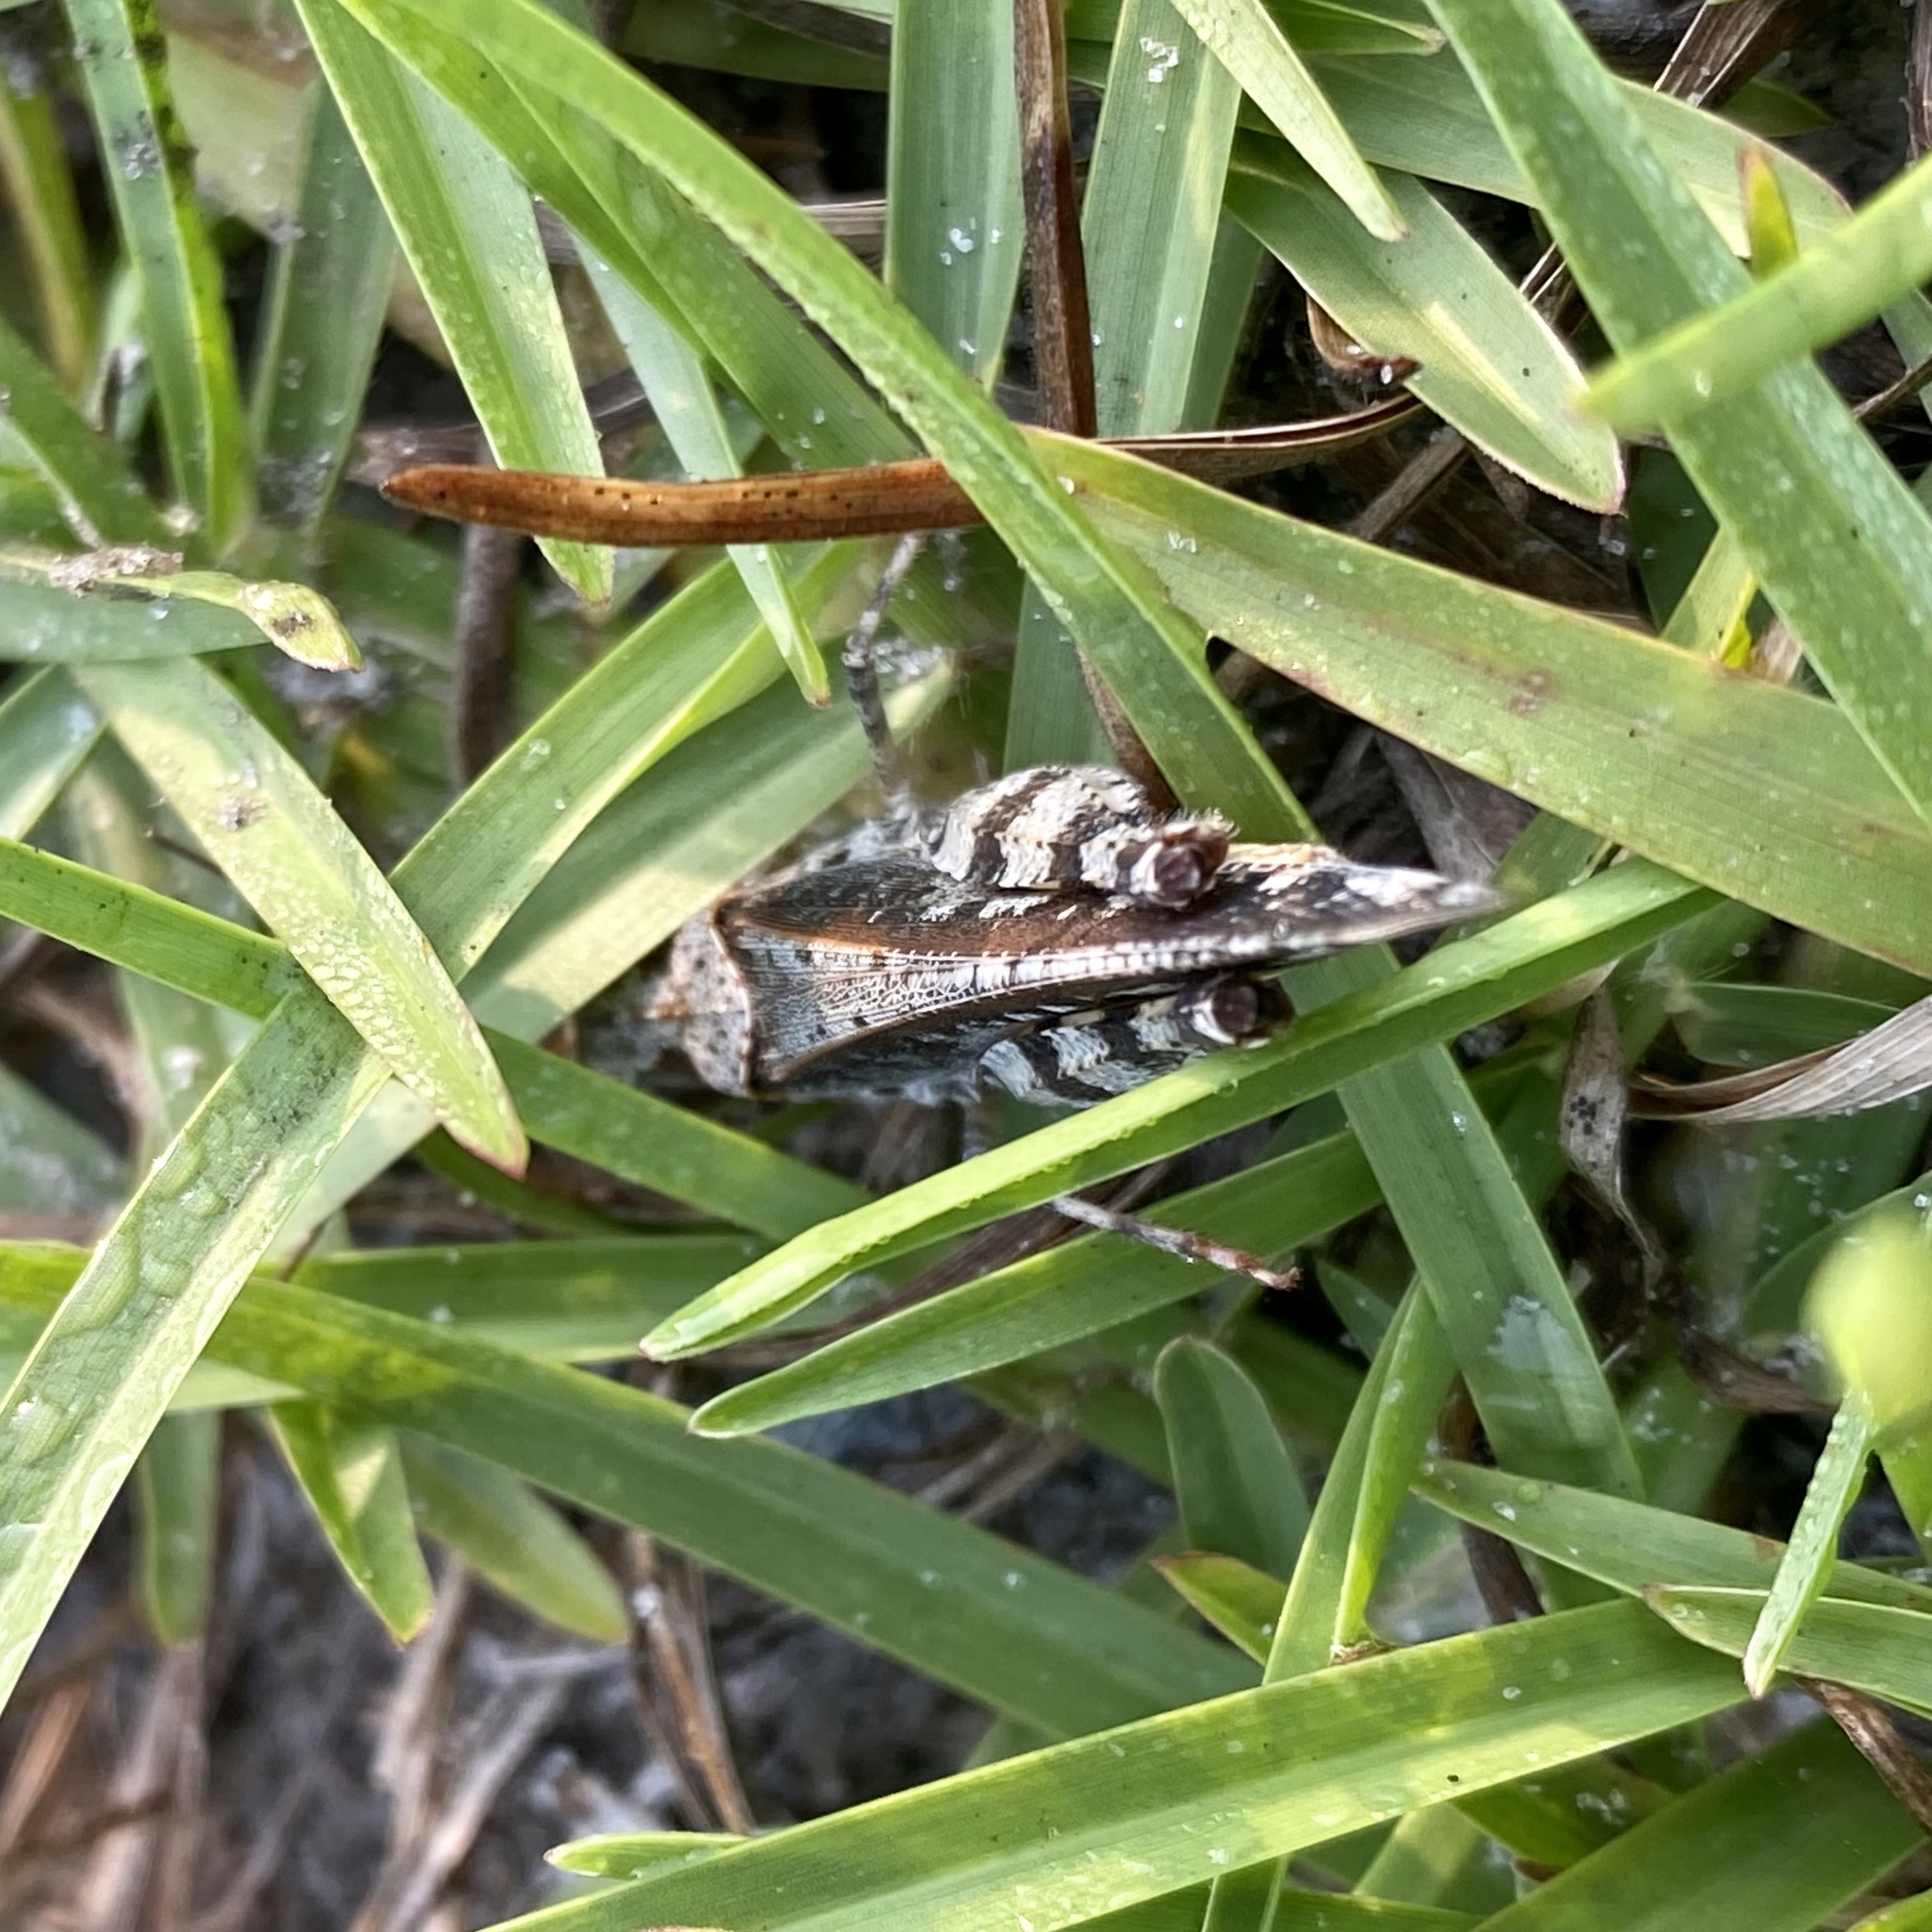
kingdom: Animalia
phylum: Arthropoda
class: Insecta
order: Orthoptera
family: Acrididae
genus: Spharagemon
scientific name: Spharagemon marmoratum
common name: Marbled grasshopper
